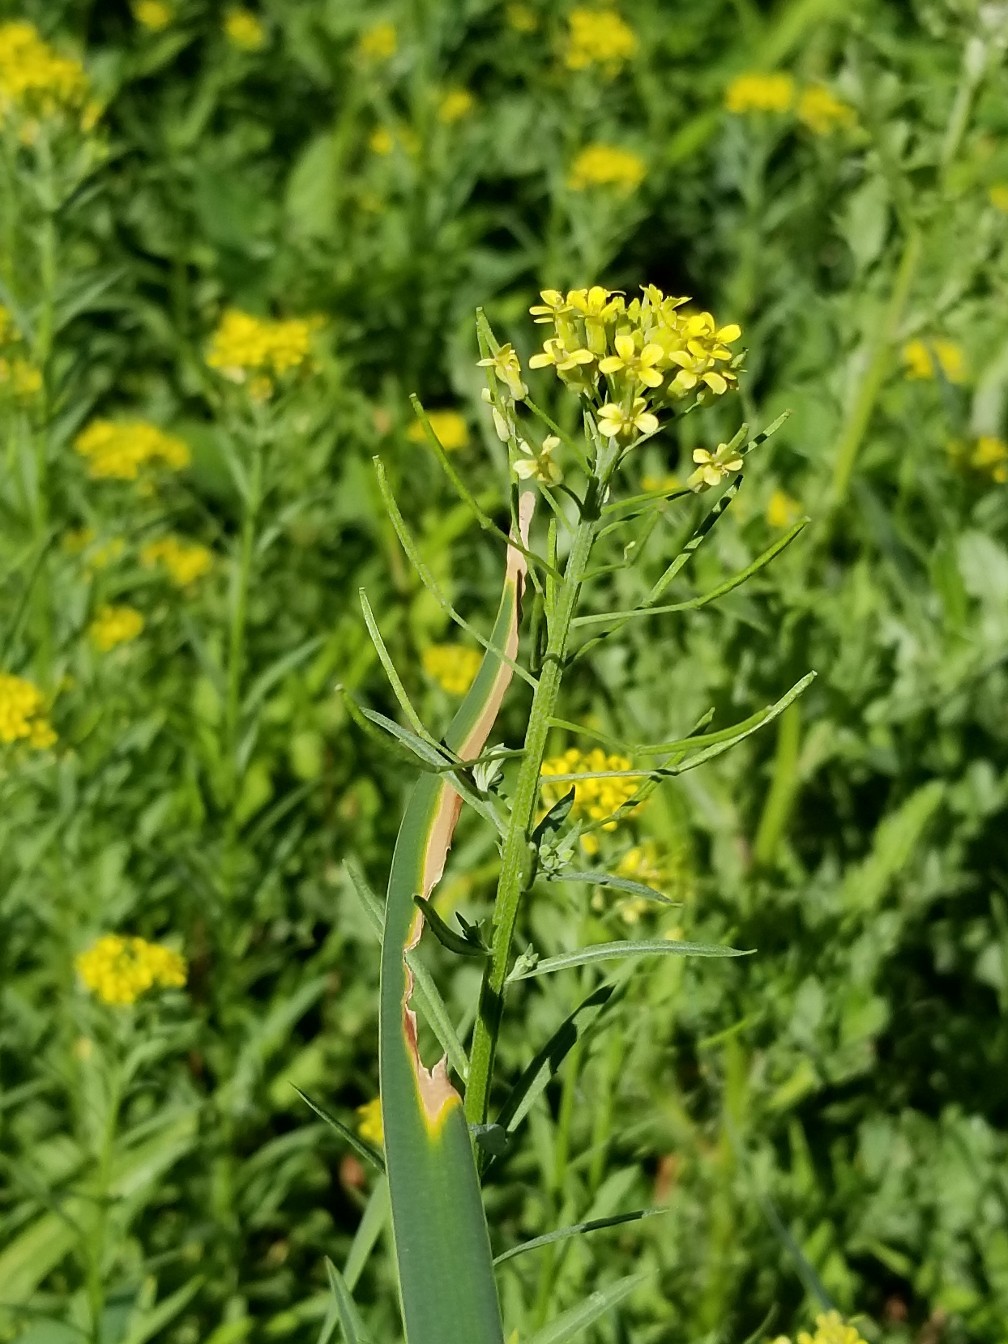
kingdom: Plantae
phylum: Tracheophyta
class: Magnoliopsida
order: Brassicales
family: Brassicaceae
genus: Erysimum
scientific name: Erysimum cheiranthoides
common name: Treacle mustard
